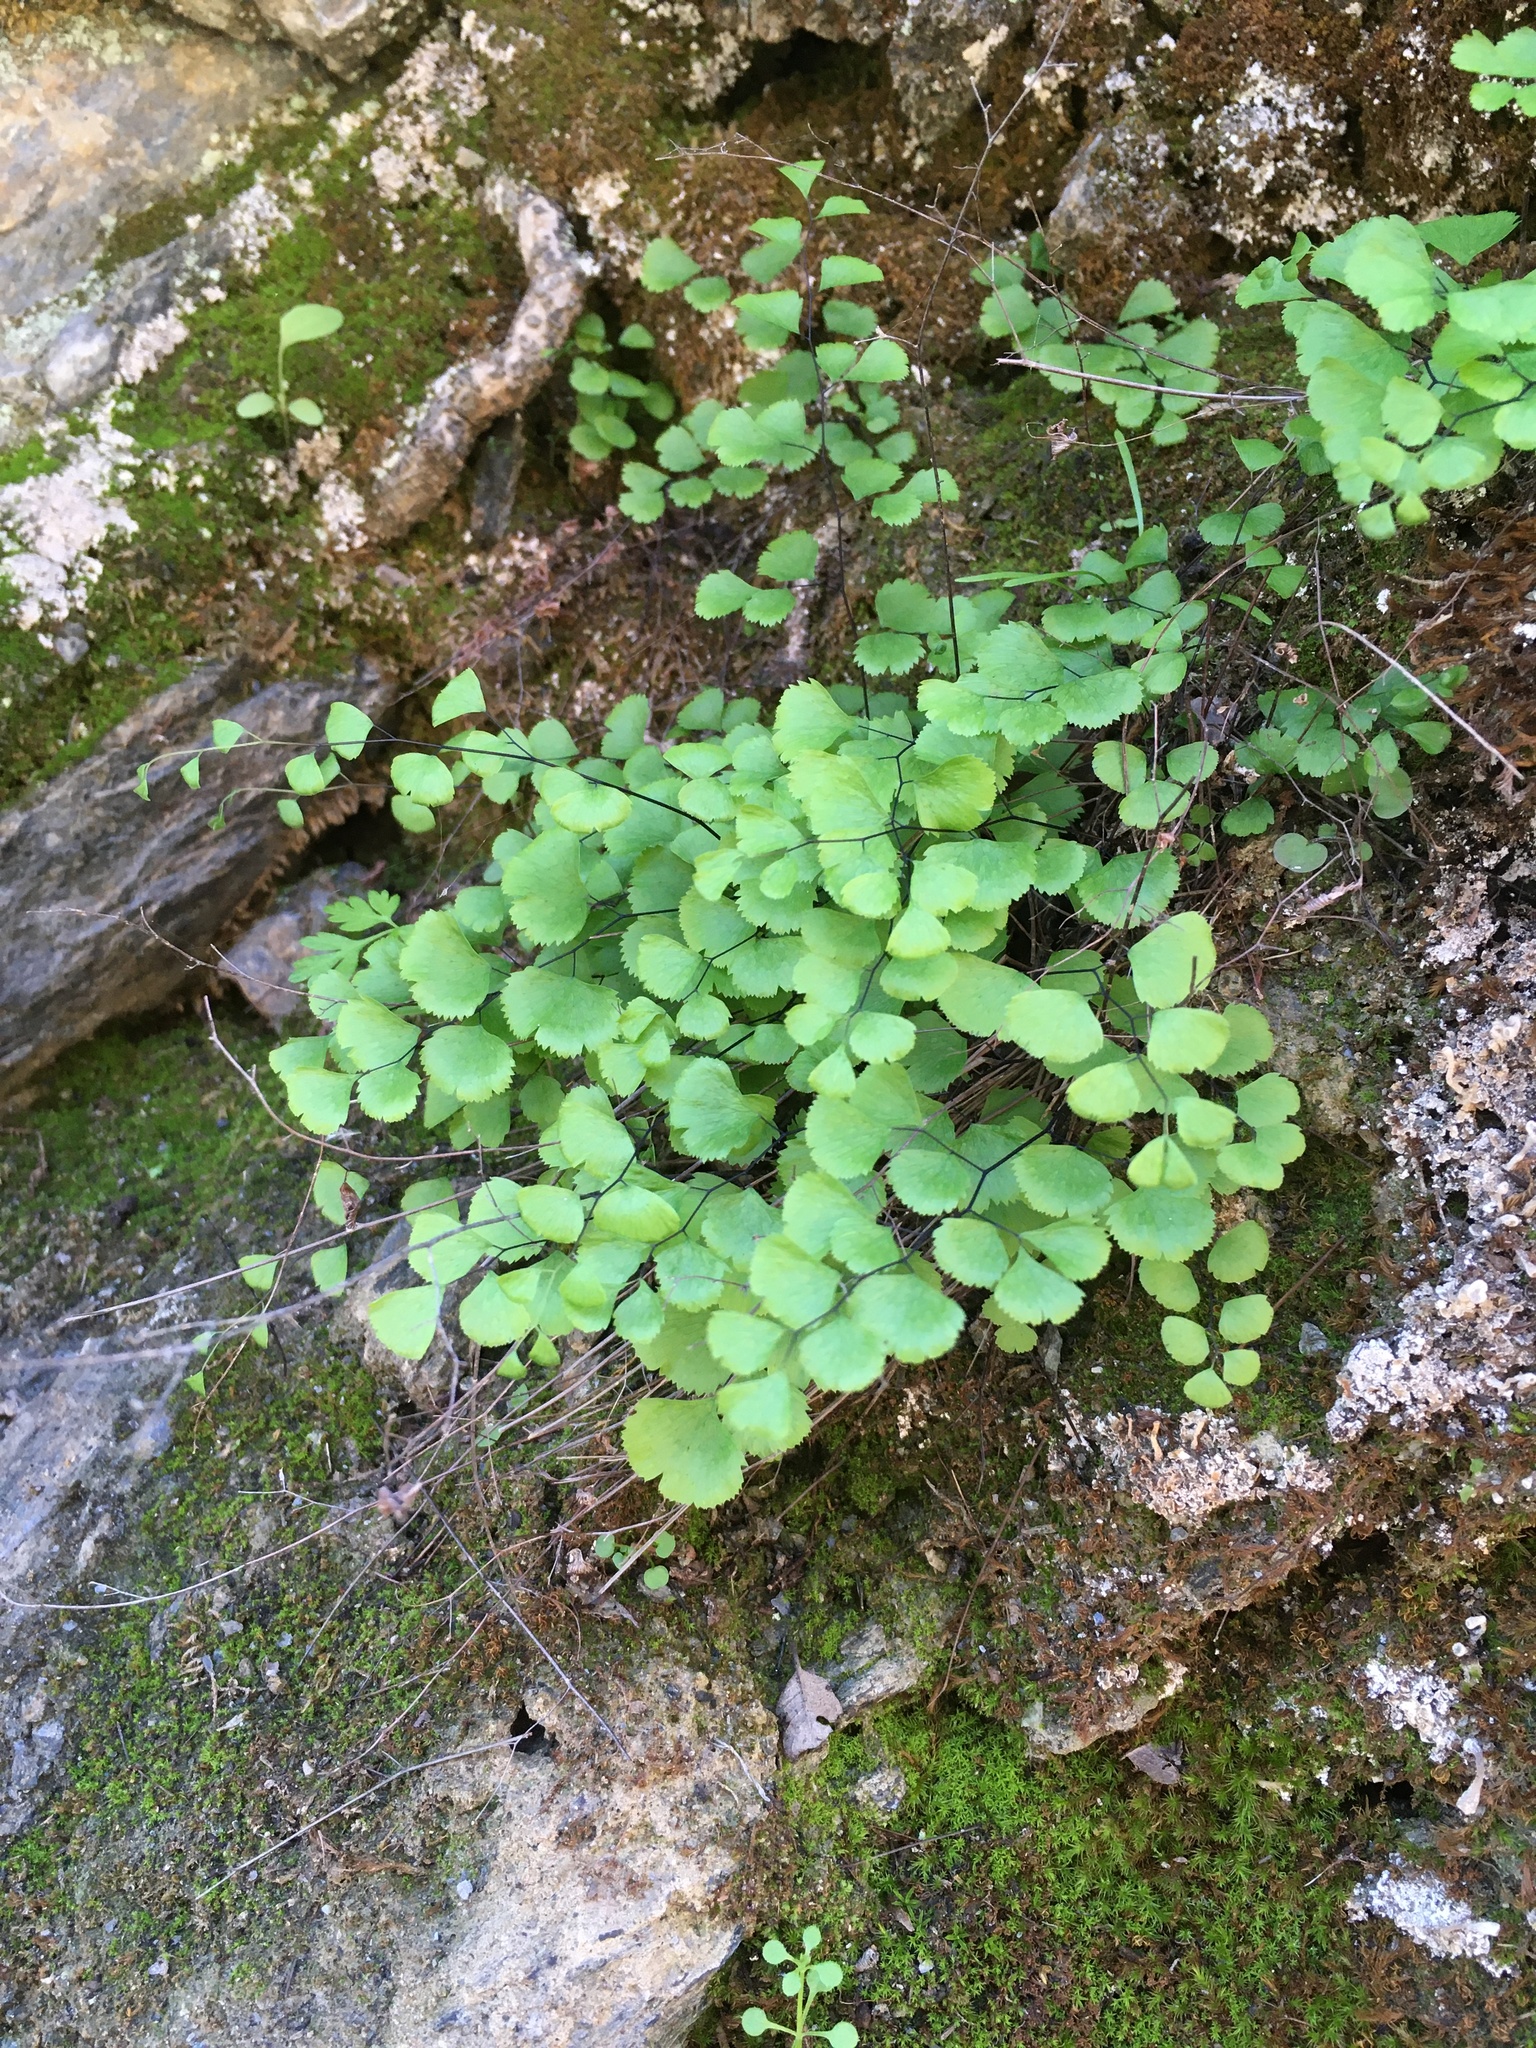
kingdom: Plantae
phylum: Tracheophyta
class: Polypodiopsida
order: Polypodiales
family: Pteridaceae
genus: Adiantum
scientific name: Adiantum jordanii
